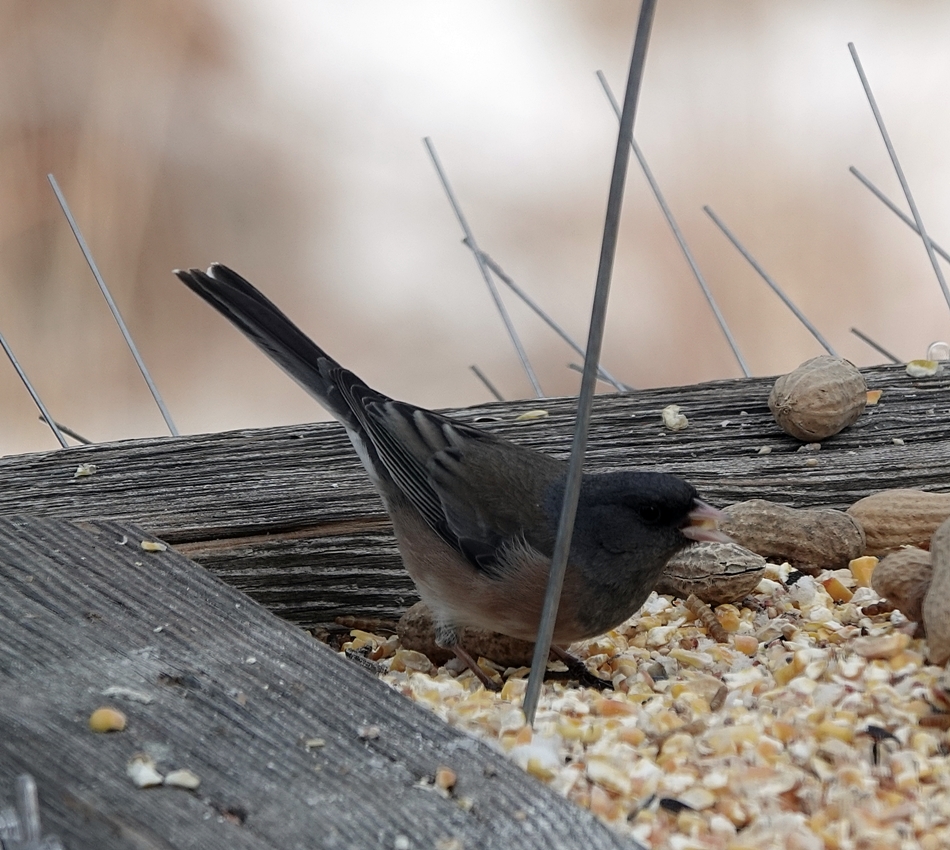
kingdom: Animalia
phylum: Chordata
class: Aves
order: Passeriformes
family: Passerellidae
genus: Junco
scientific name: Junco hyemalis
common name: Dark-eyed junco
